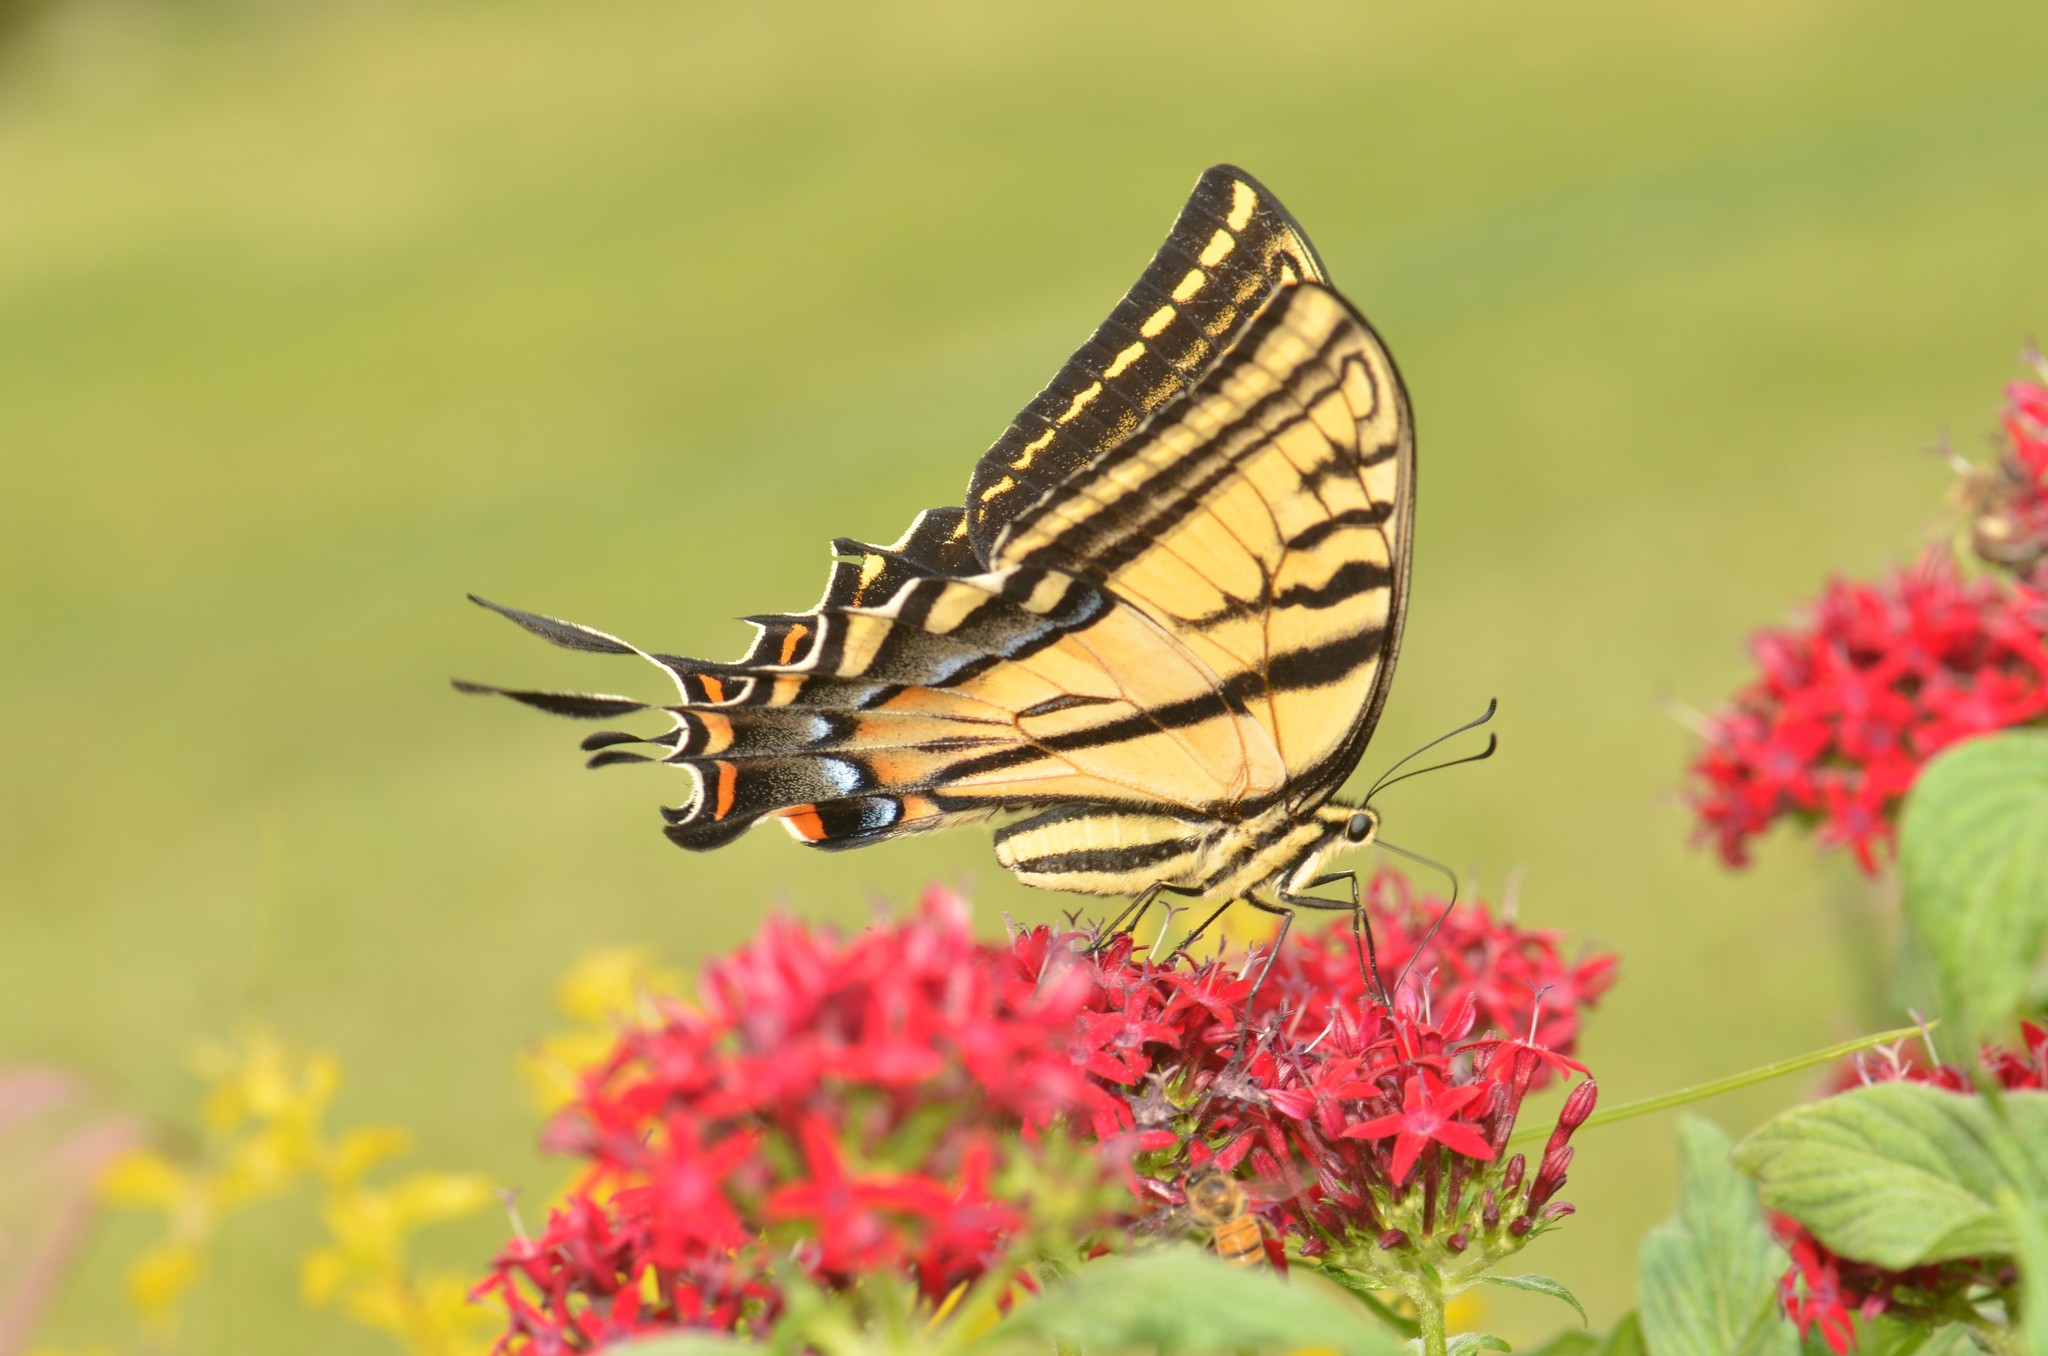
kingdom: Animalia
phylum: Arthropoda
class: Insecta
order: Lepidoptera
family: Papilionidae
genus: Papilio
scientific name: Papilio multicaudata
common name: Two-tailed tiger swallowtail
